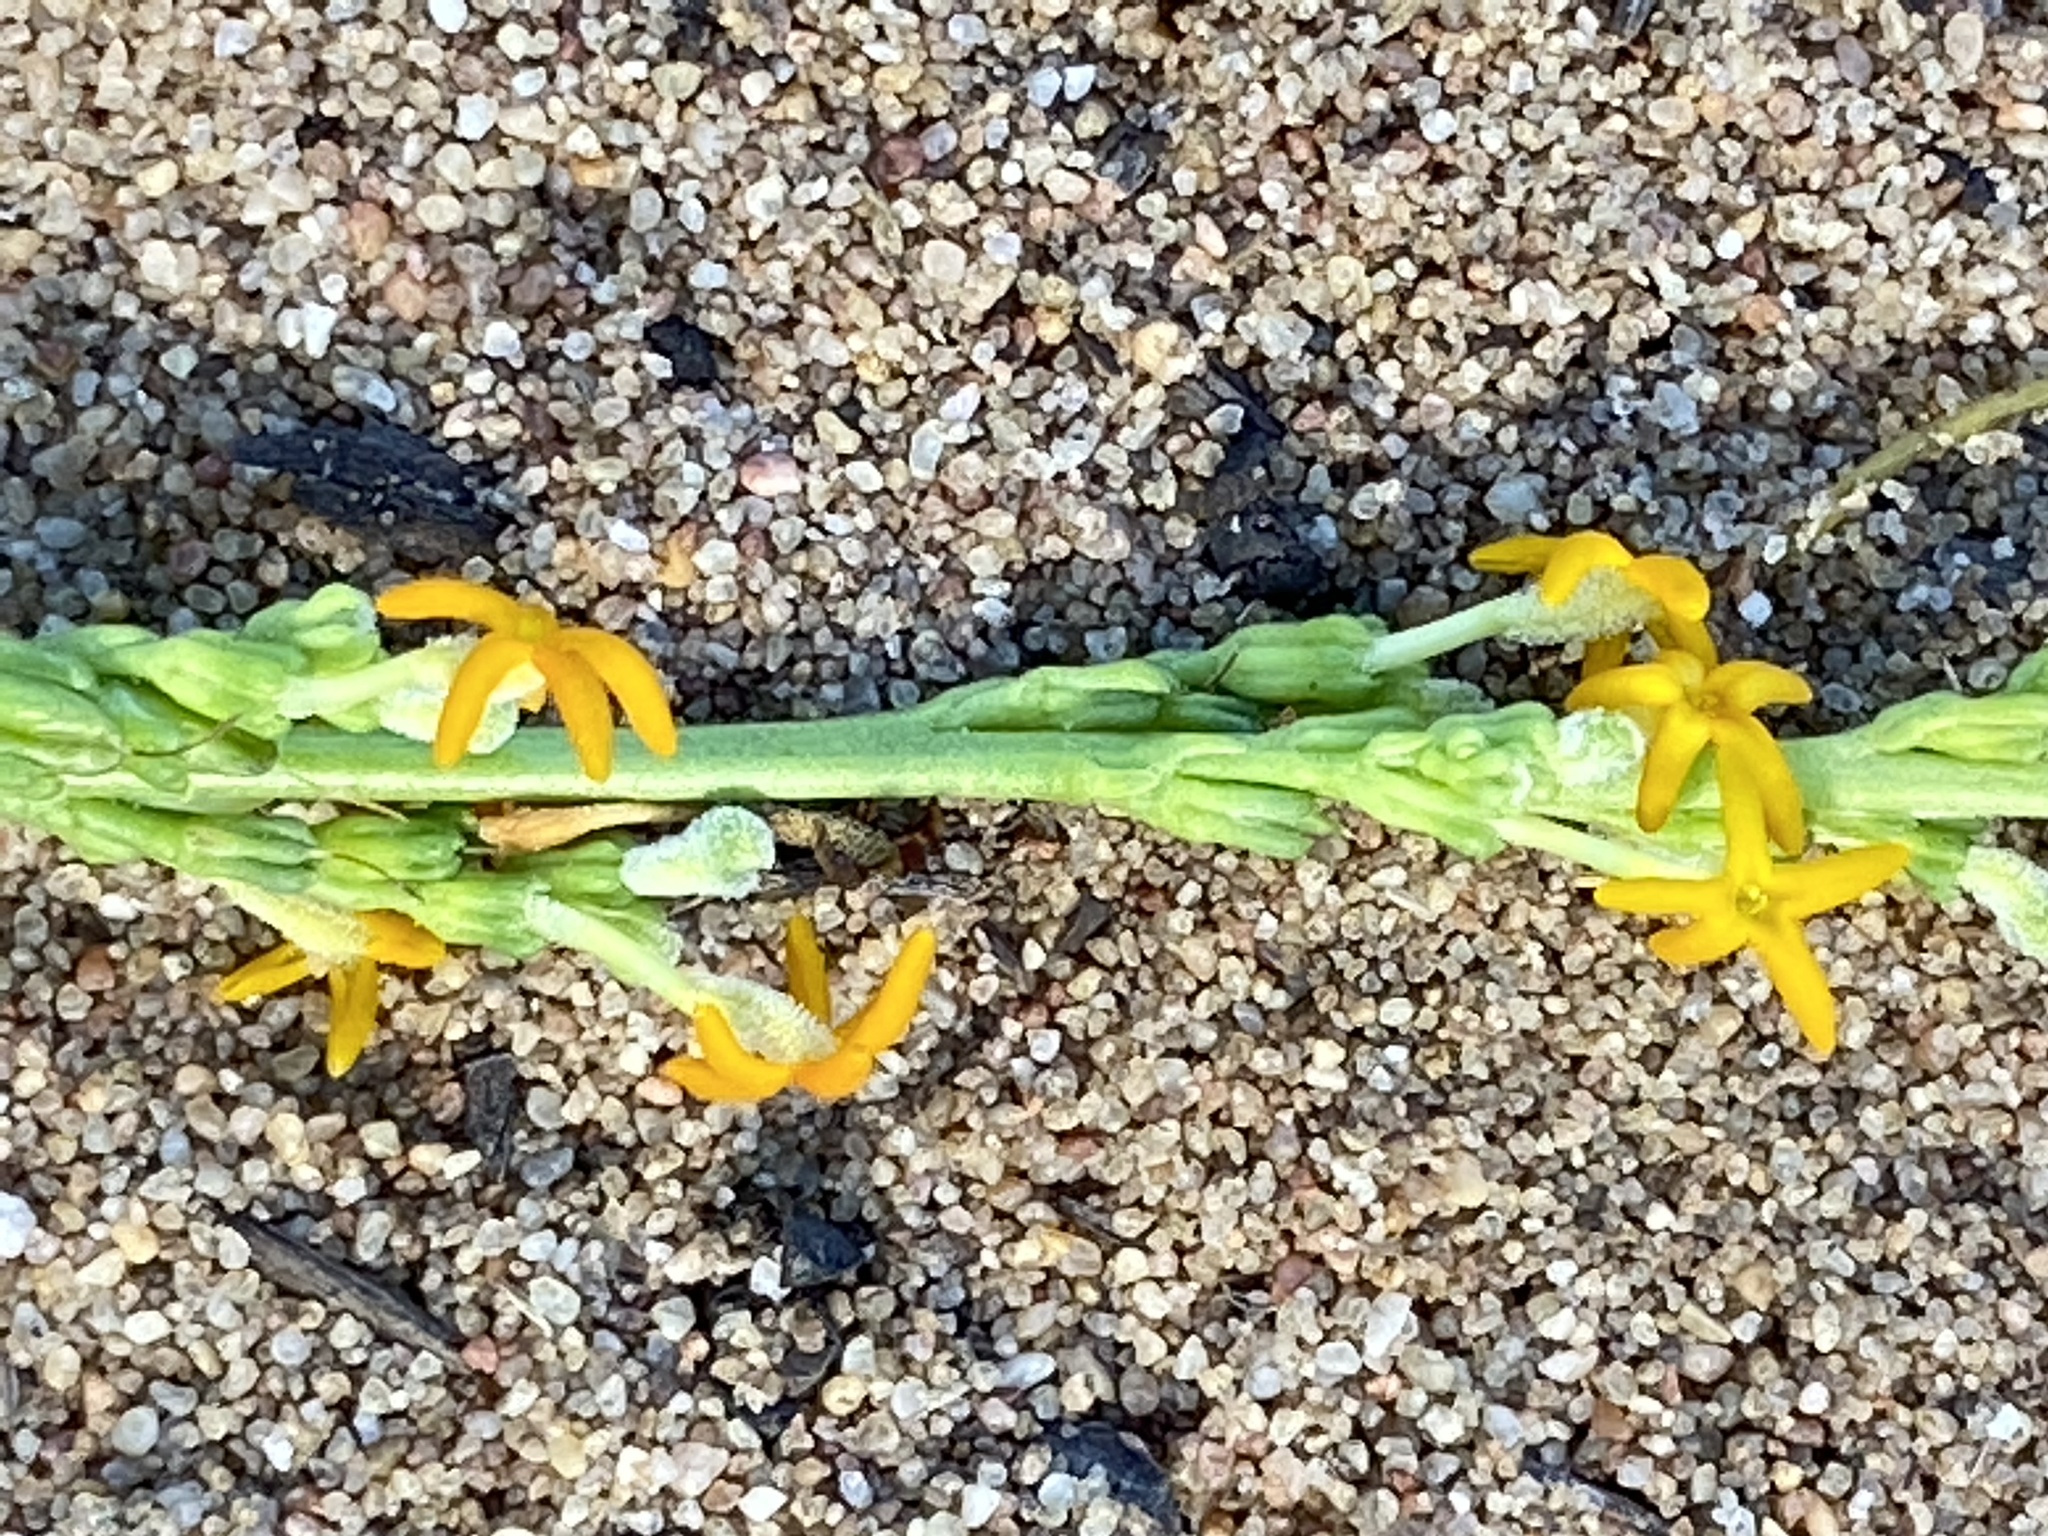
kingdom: Plantae
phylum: Tracheophyta
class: Magnoliopsida
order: Lamiales
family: Scrophulariaceae
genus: Manulea
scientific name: Manulea rubra
